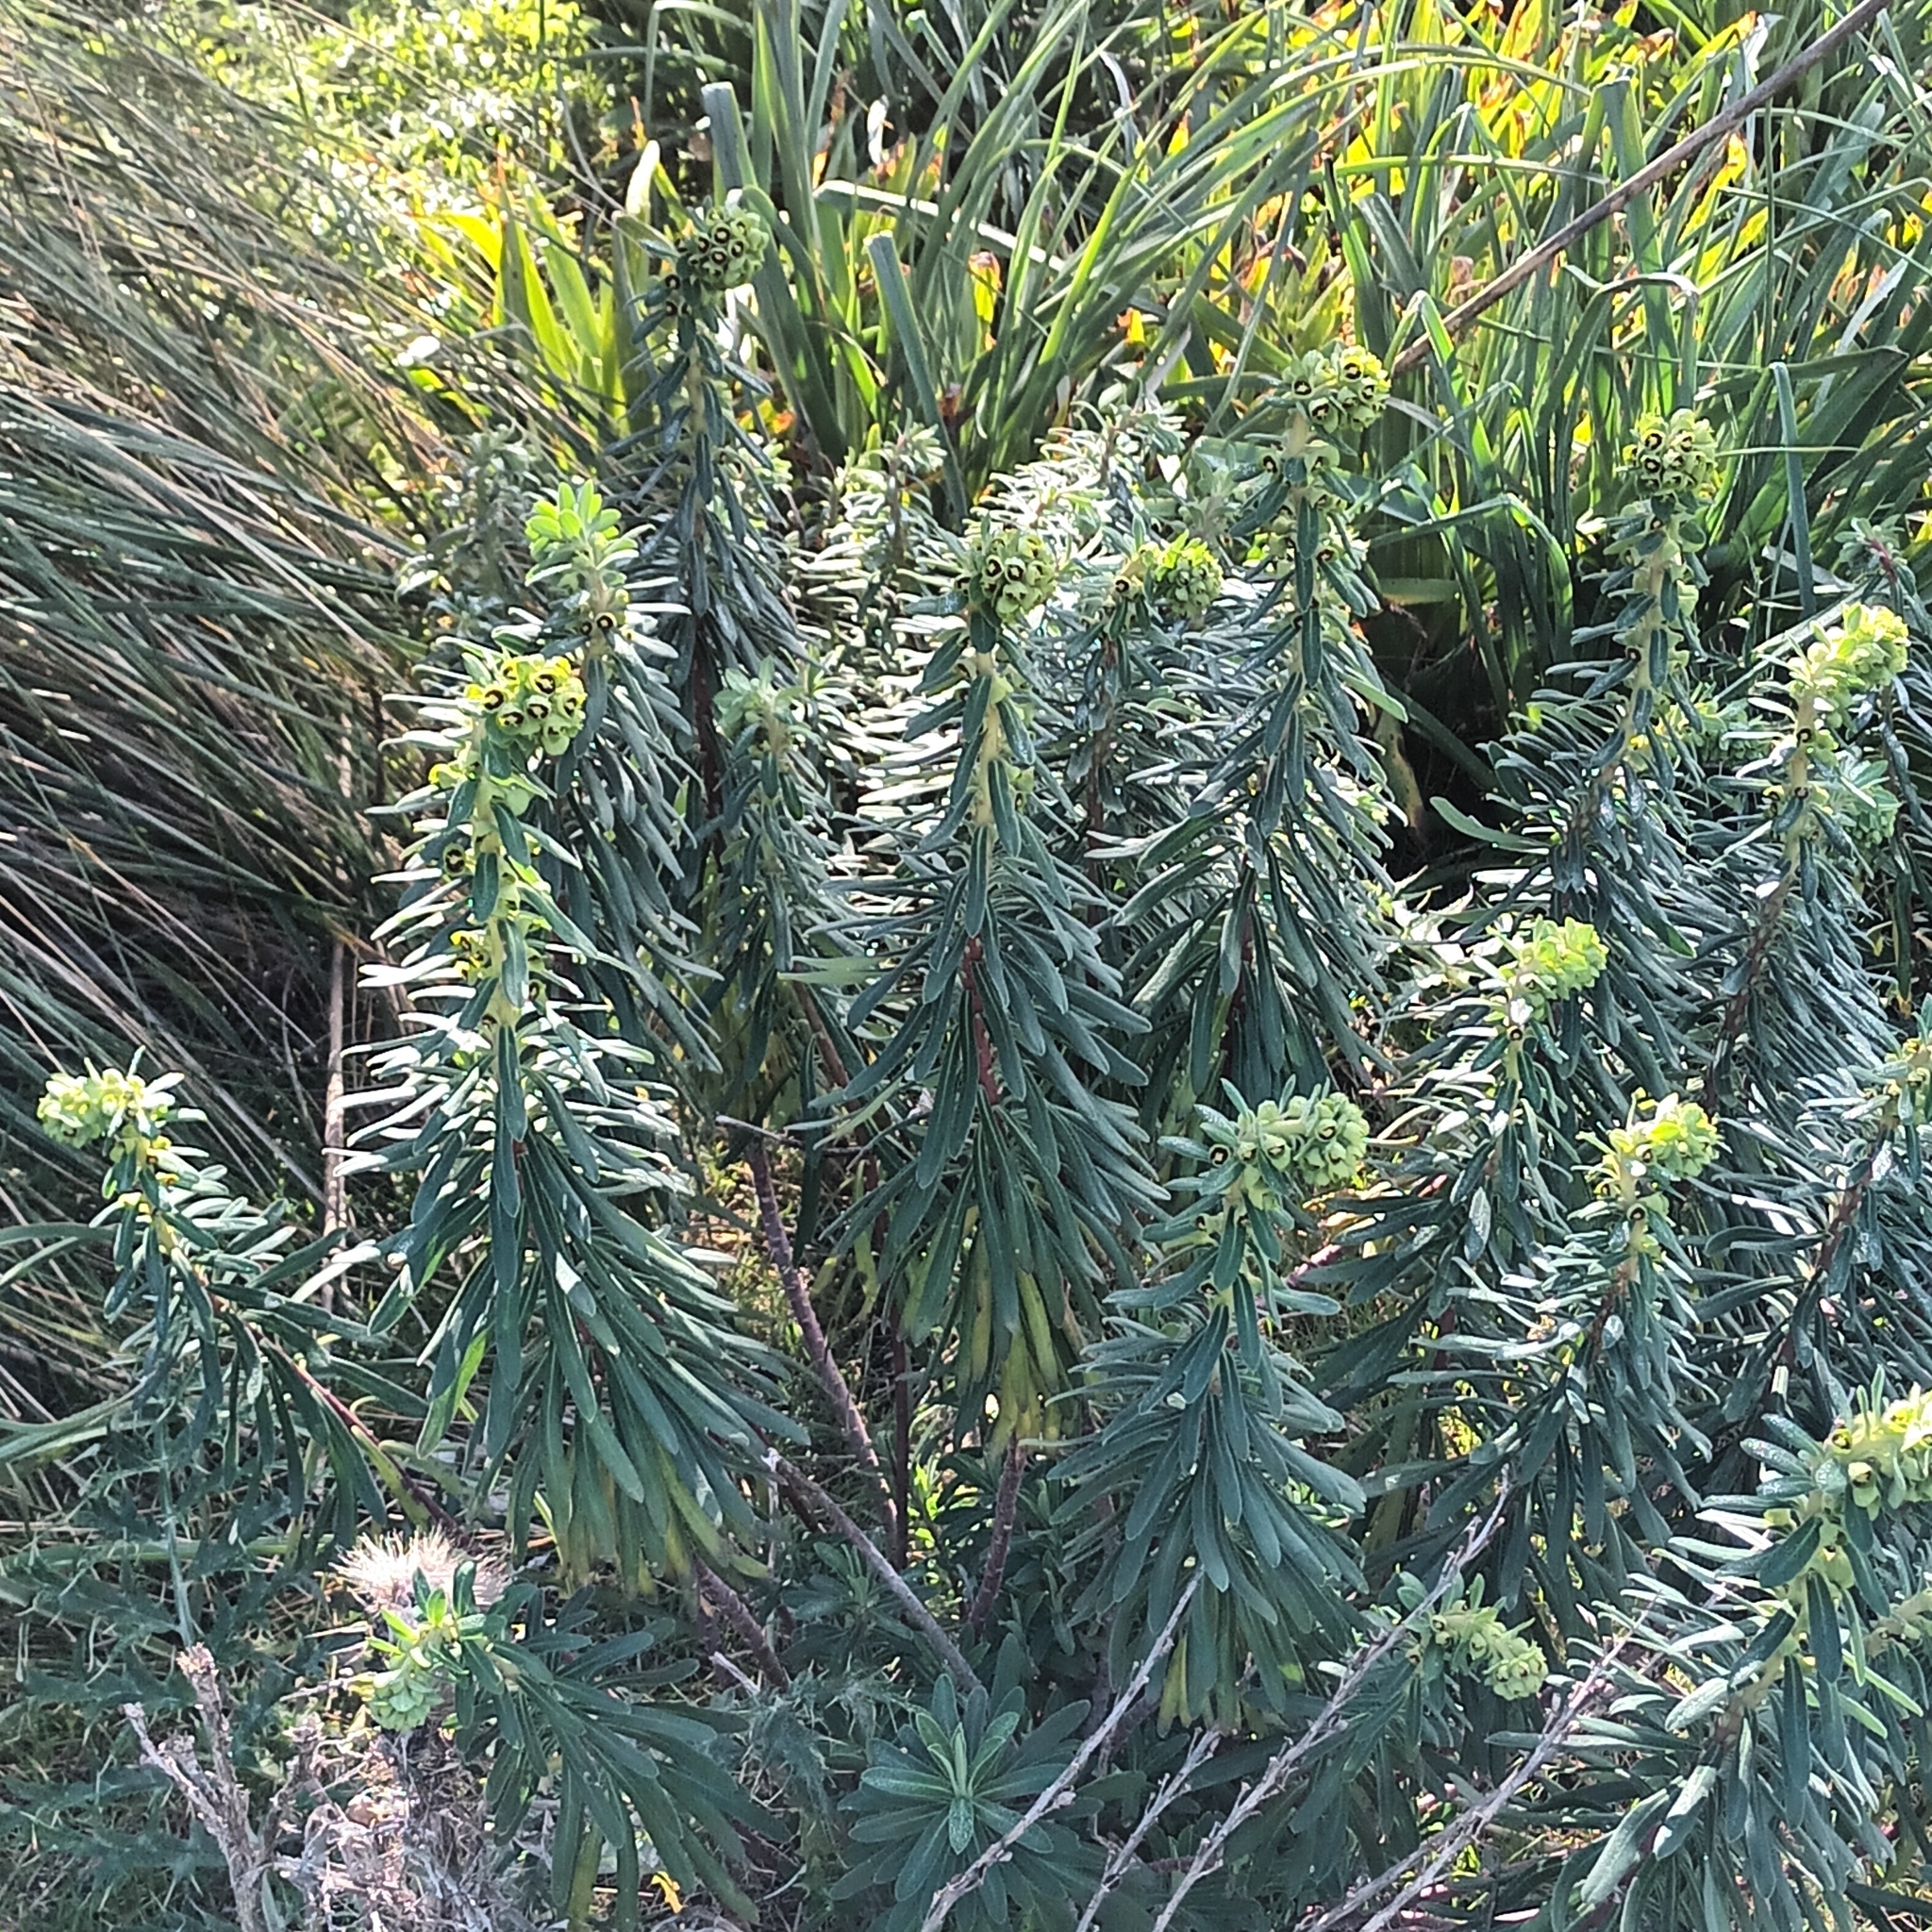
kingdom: Plantae
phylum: Tracheophyta
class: Magnoliopsida
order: Malpighiales
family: Euphorbiaceae
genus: Euphorbia
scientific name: Euphorbia characias
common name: Mediterranean spurge
